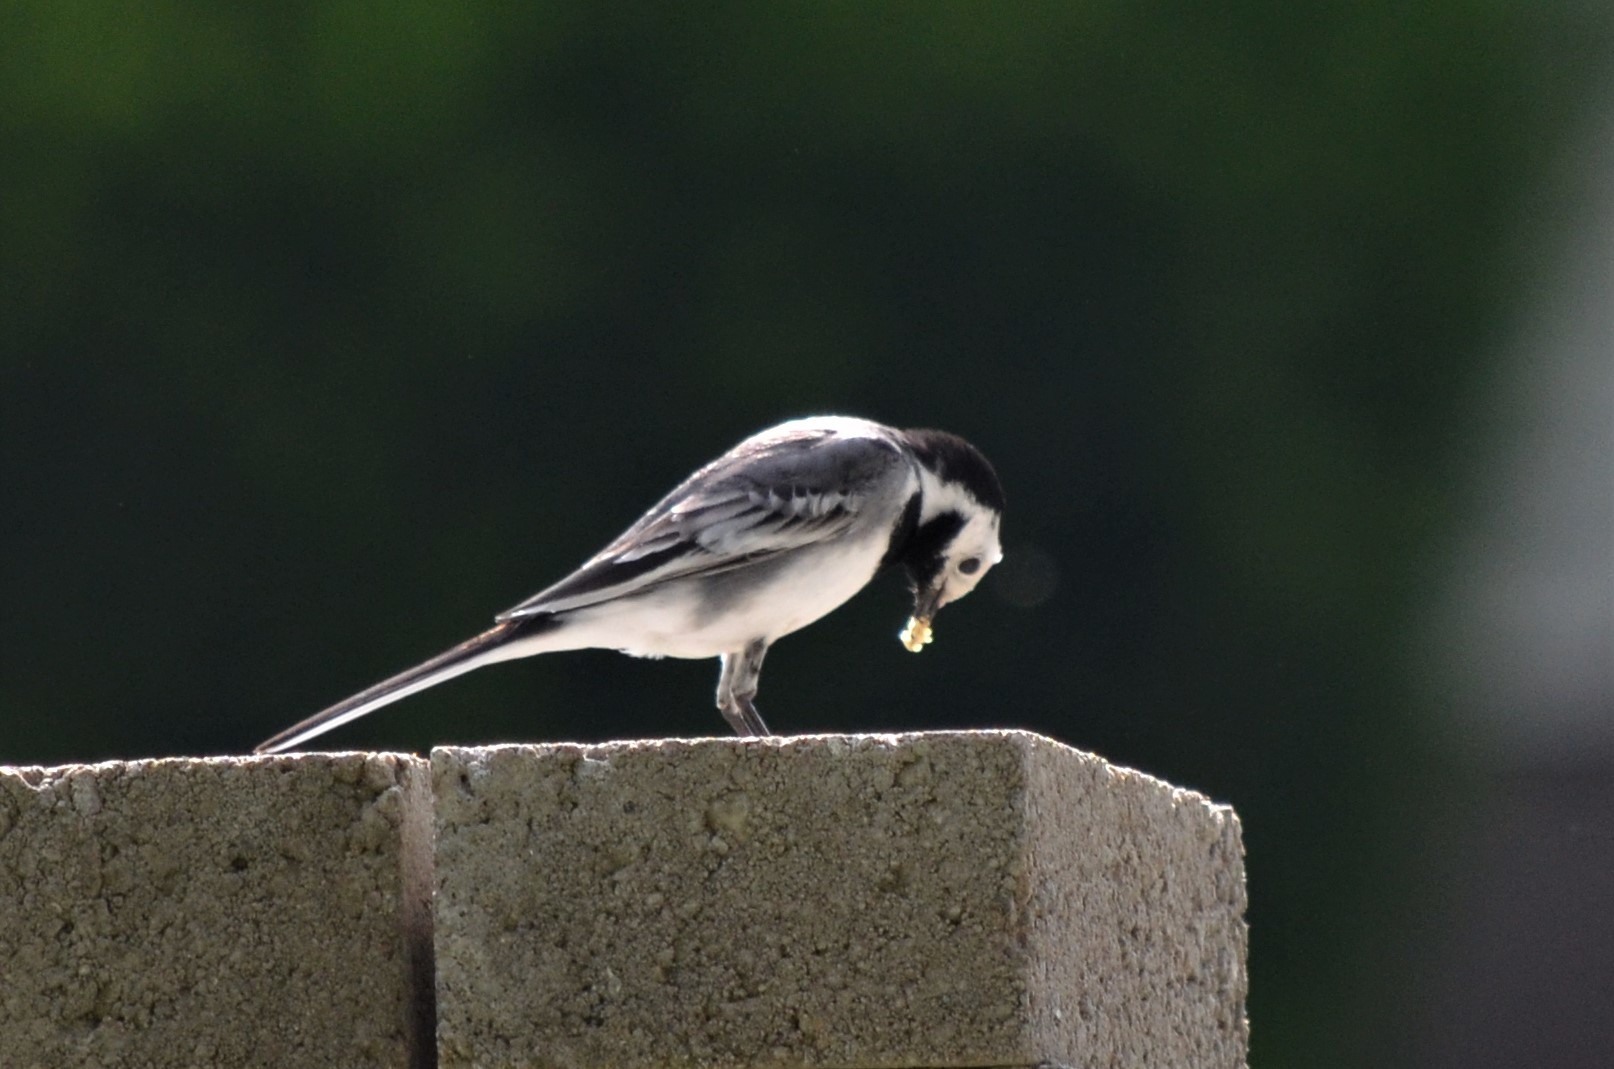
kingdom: Animalia
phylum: Chordata
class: Aves
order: Passeriformes
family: Motacillidae
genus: Motacilla
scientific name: Motacilla alba
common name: White wagtail
